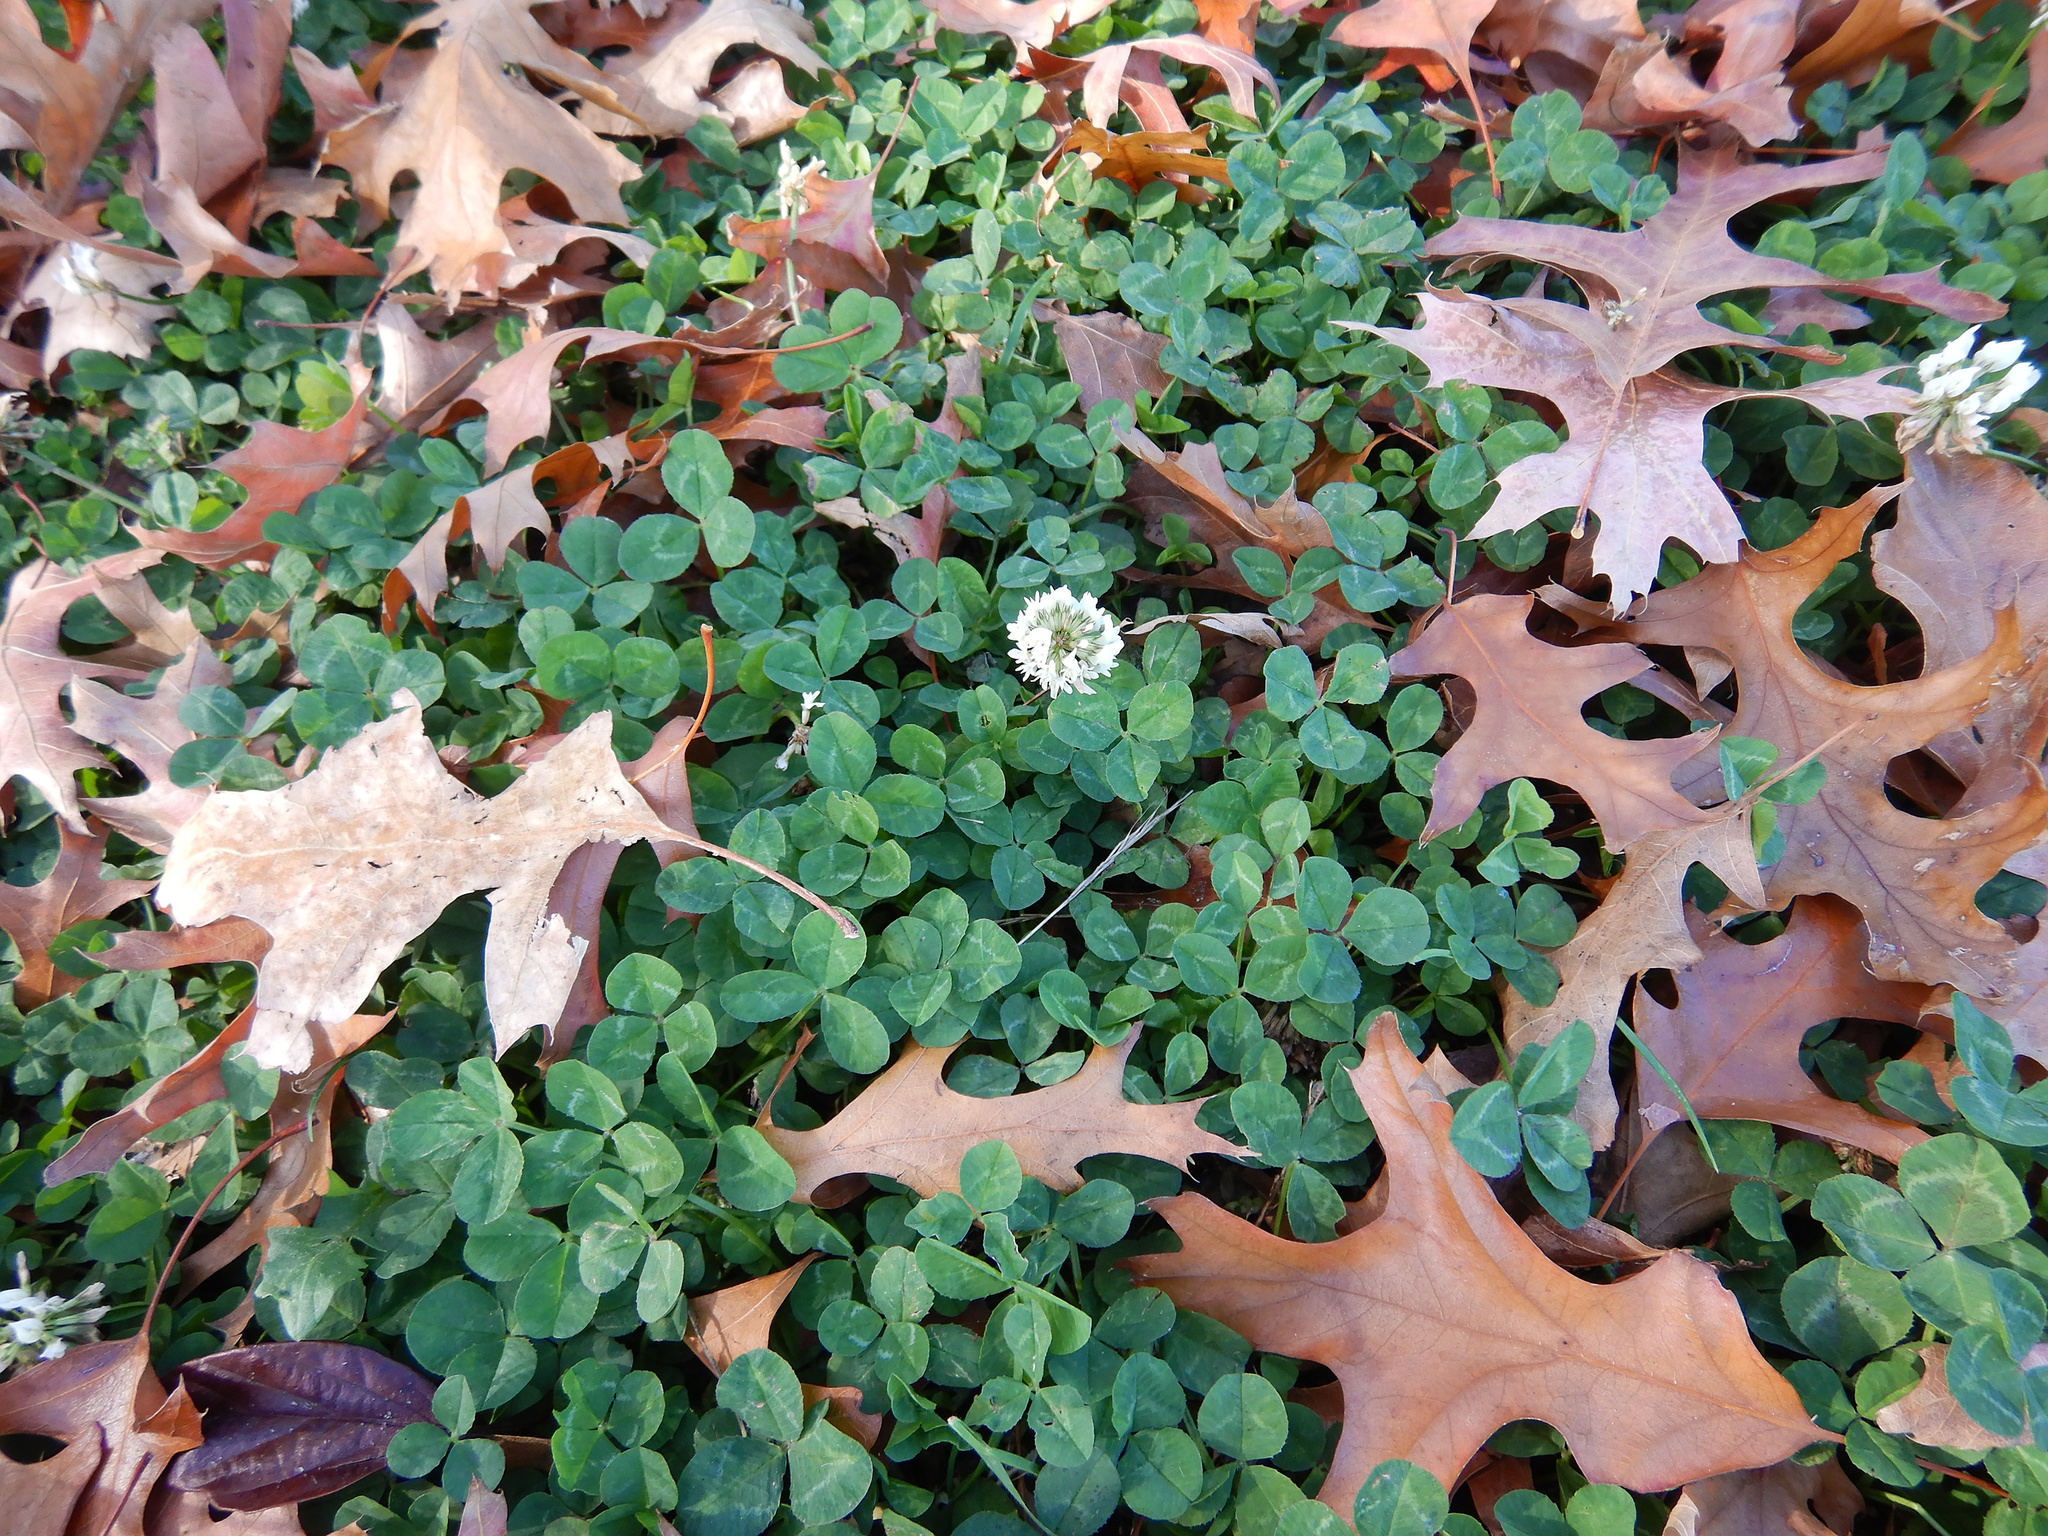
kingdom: Plantae
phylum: Tracheophyta
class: Magnoliopsida
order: Fabales
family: Fabaceae
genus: Trifolium
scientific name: Trifolium repens
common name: White clover
